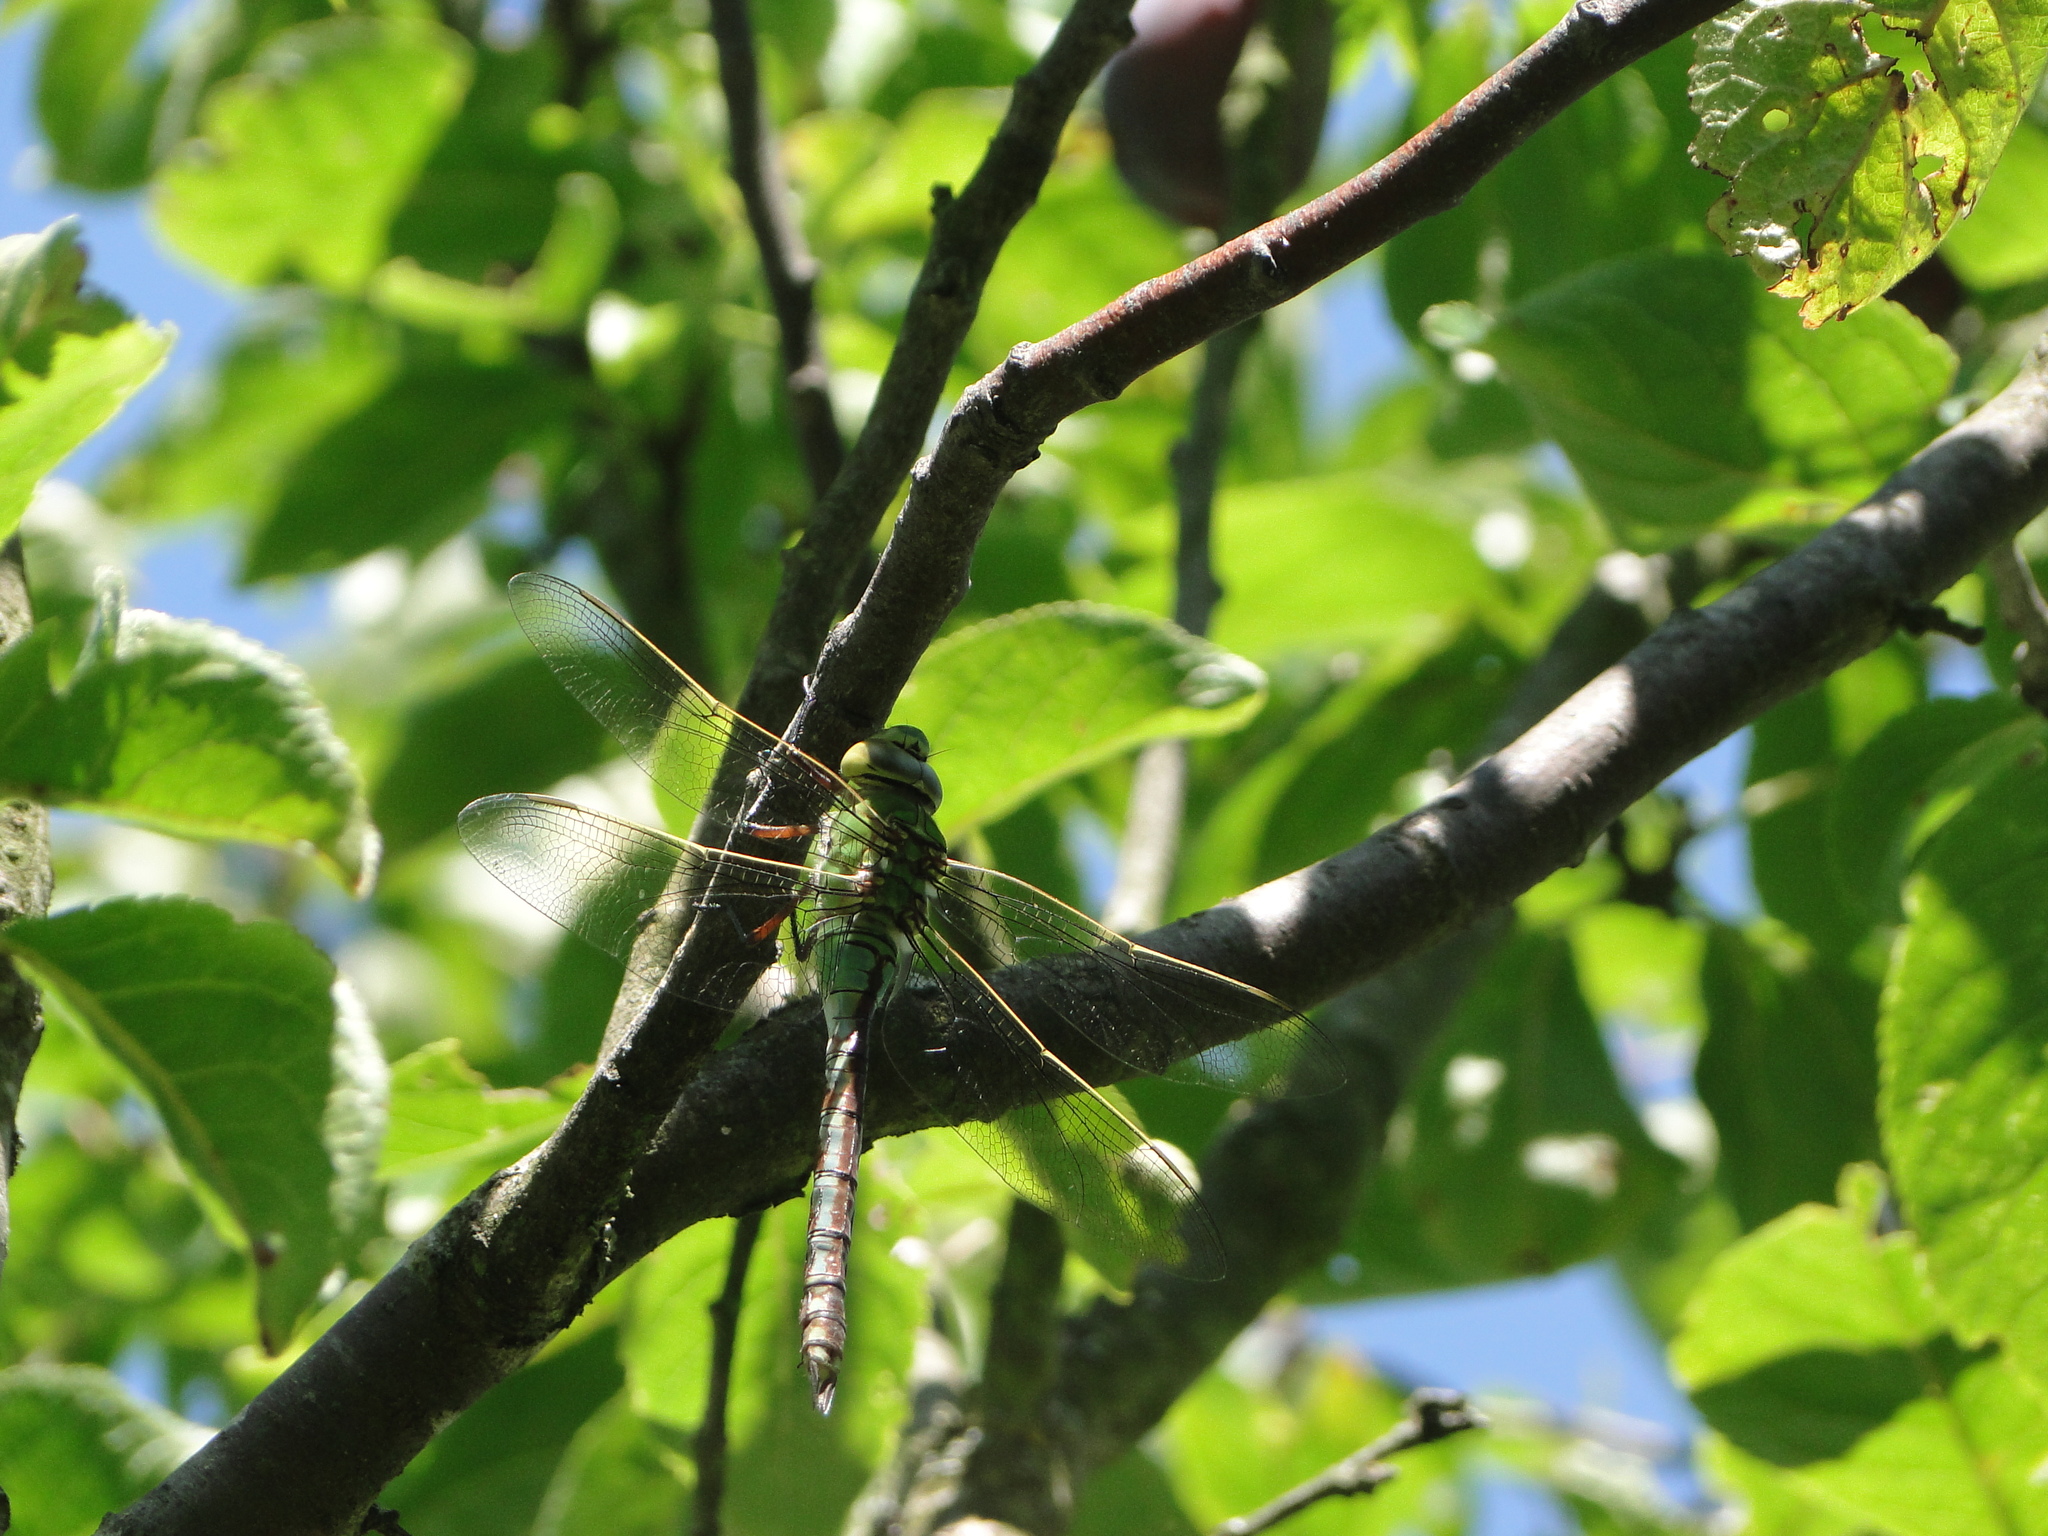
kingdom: Animalia
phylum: Arthropoda
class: Insecta
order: Odonata
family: Aeshnidae
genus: Anax
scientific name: Anax imperator
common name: Emperor dragonfly
